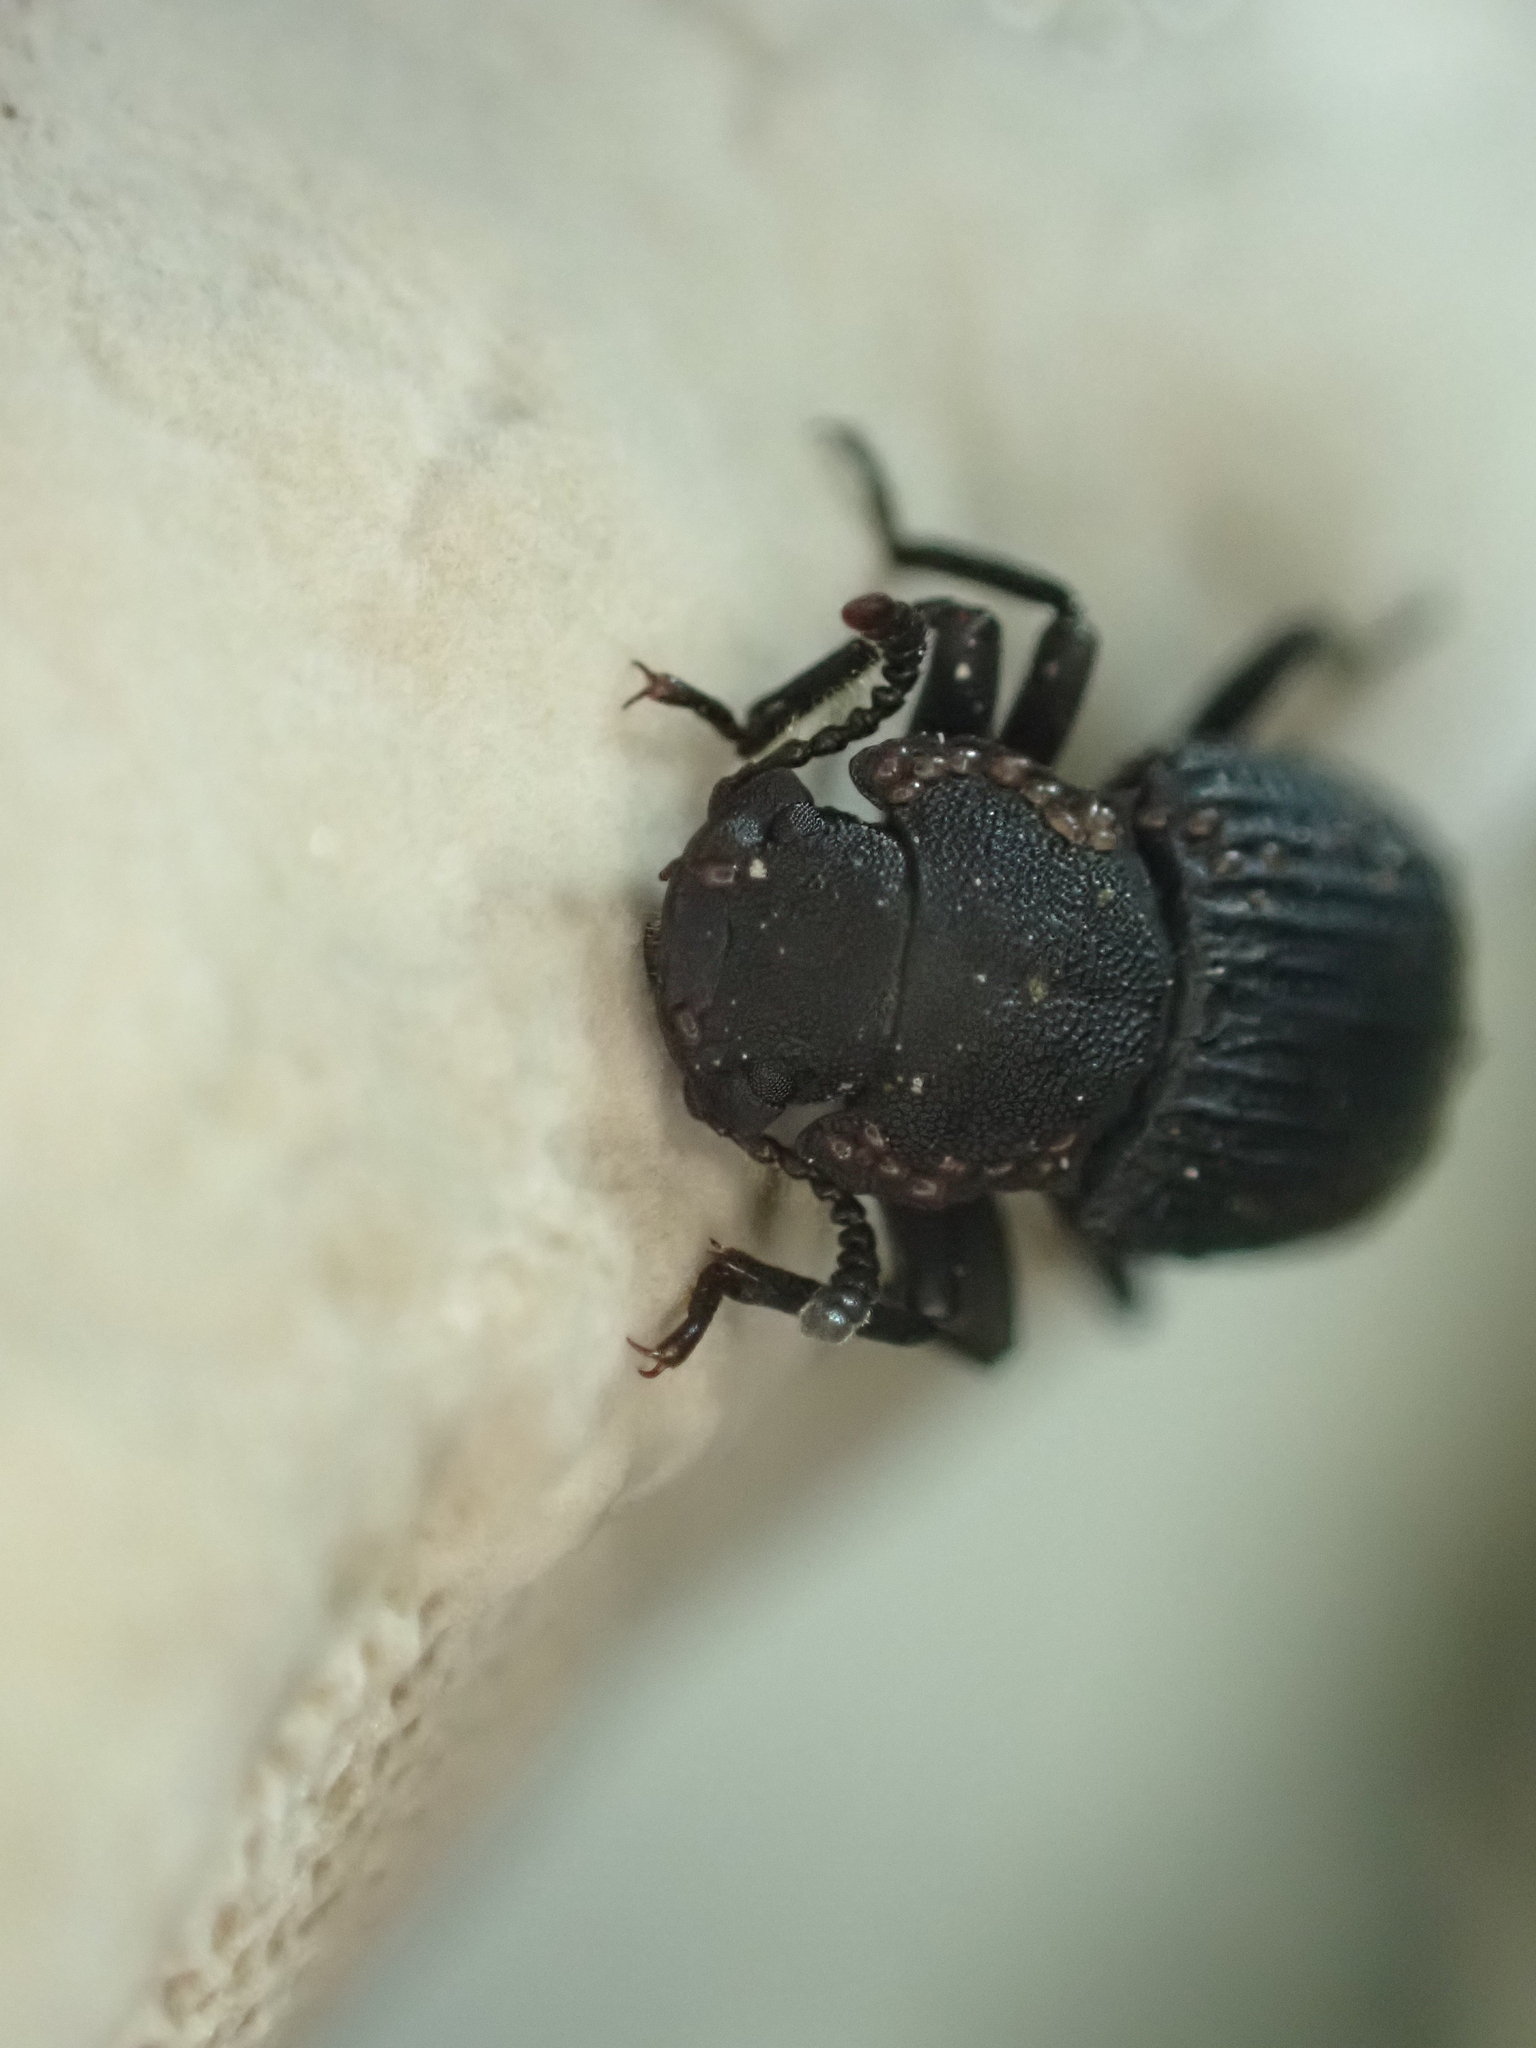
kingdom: Animalia
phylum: Arthropoda
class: Insecta
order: Coleoptera
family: Tenebrionidae
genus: Bolitophagus
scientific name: Bolitophagus reticulatus
